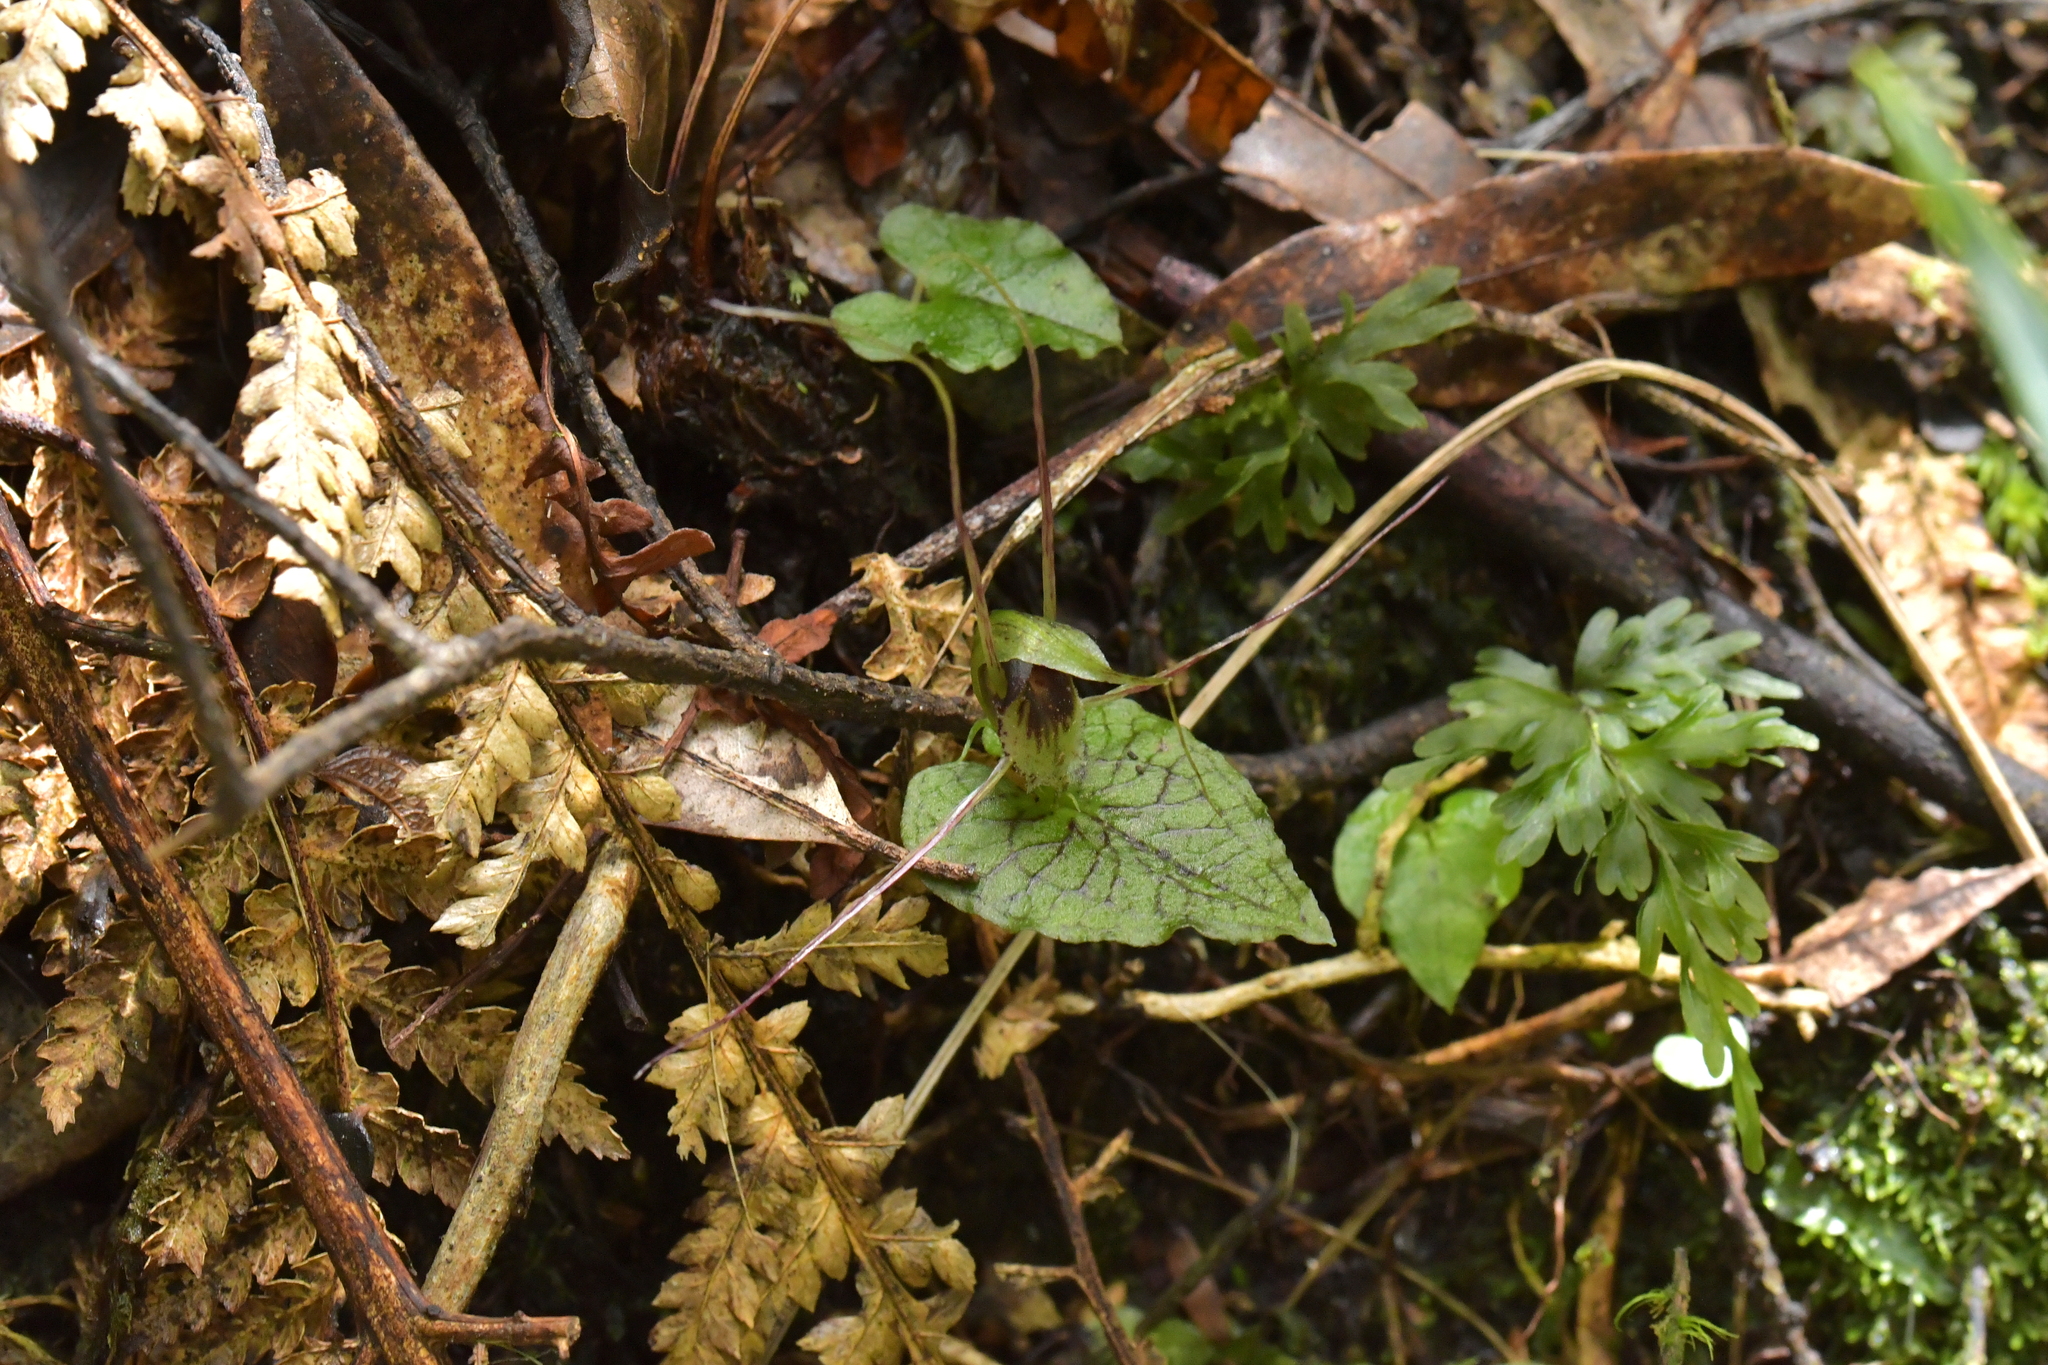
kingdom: Plantae
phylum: Tracheophyta
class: Liliopsida
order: Asparagales
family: Orchidaceae
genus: Corybas
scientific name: Corybas acuminatus
